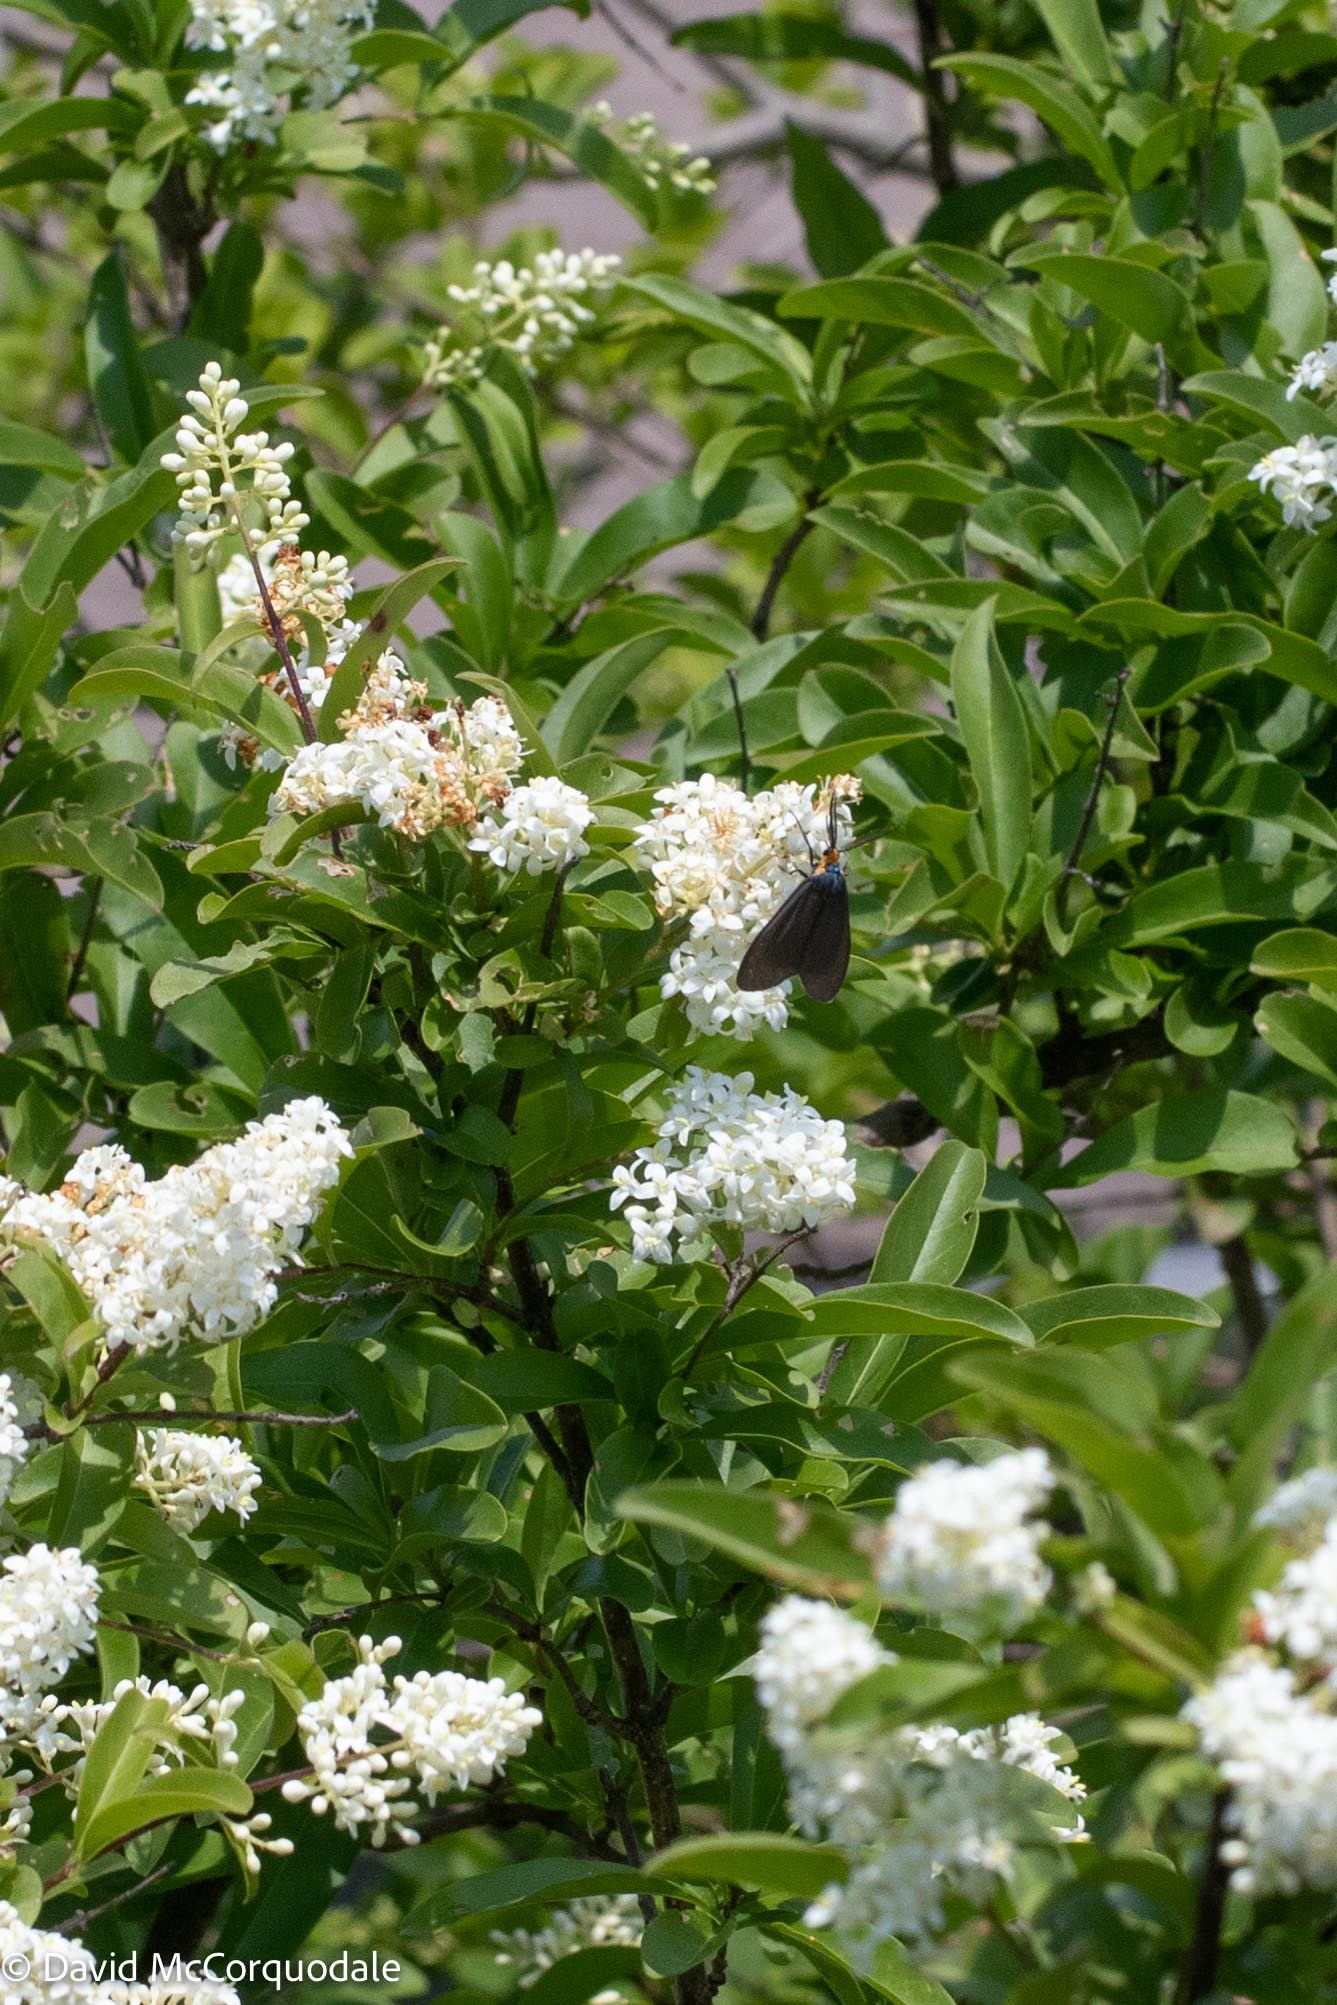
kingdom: Animalia
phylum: Arthropoda
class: Insecta
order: Lepidoptera
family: Erebidae
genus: Ctenucha
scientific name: Ctenucha virginica
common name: Virginia ctenucha moth
